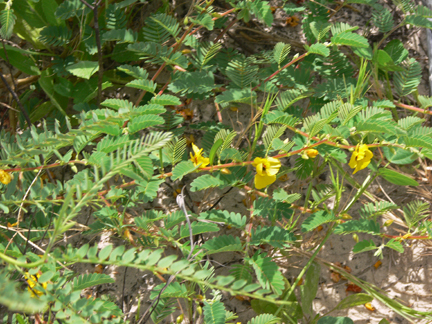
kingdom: Plantae
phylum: Tracheophyta
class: Magnoliopsida
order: Fabales
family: Fabaceae
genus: Chamaecrista
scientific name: Chamaecrista fasciculata
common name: Golden cassia
